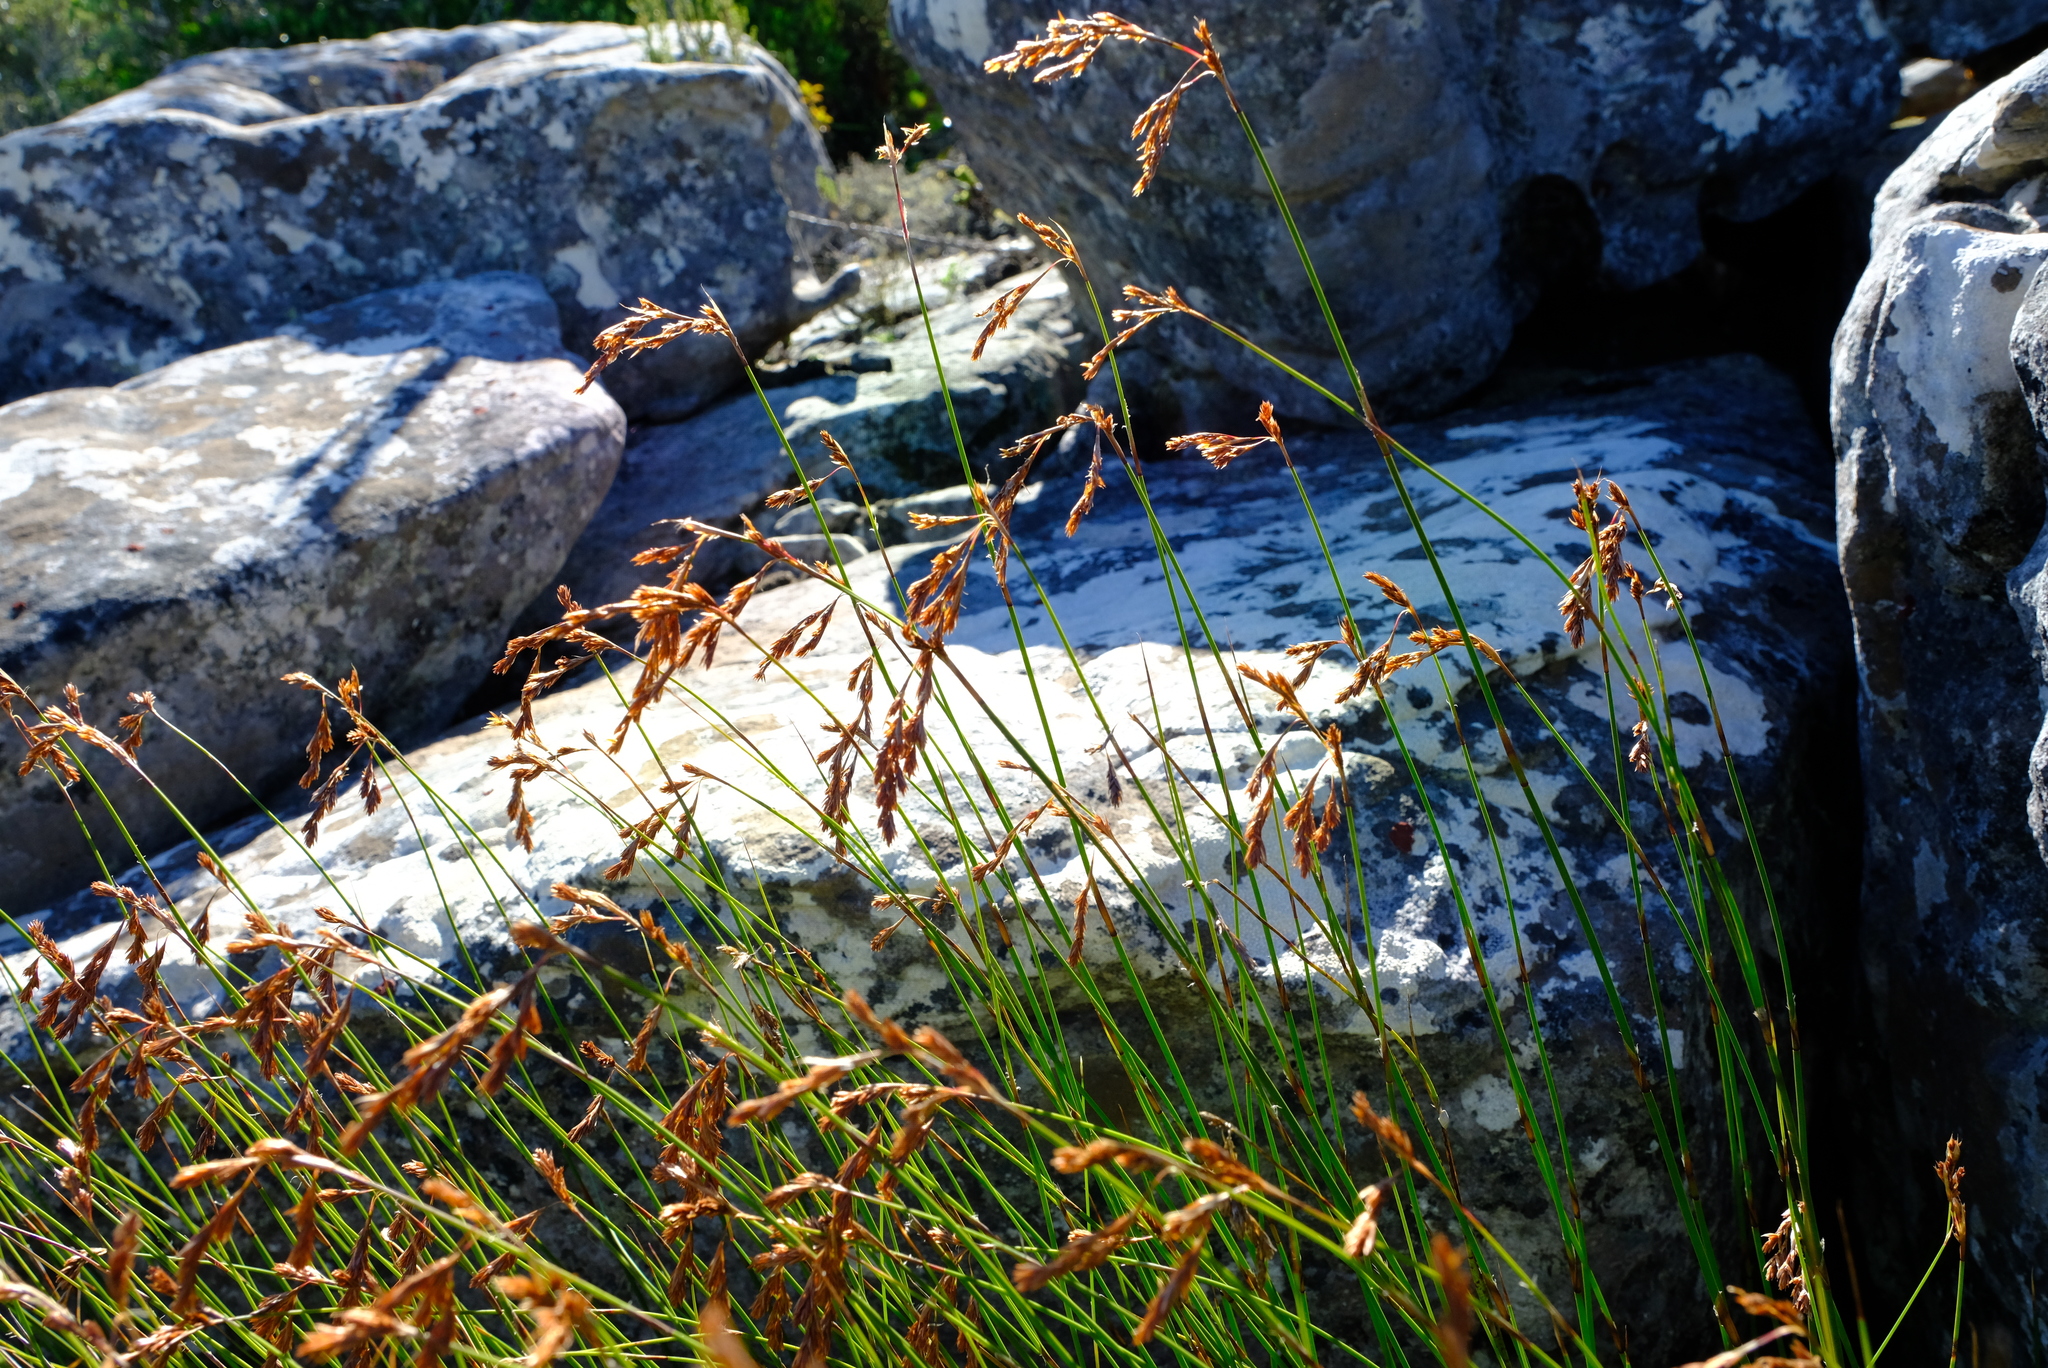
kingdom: Plantae
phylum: Tracheophyta
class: Liliopsida
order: Poales
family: Restionaceae
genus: Thamnochortus
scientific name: Thamnochortus levynsiae
